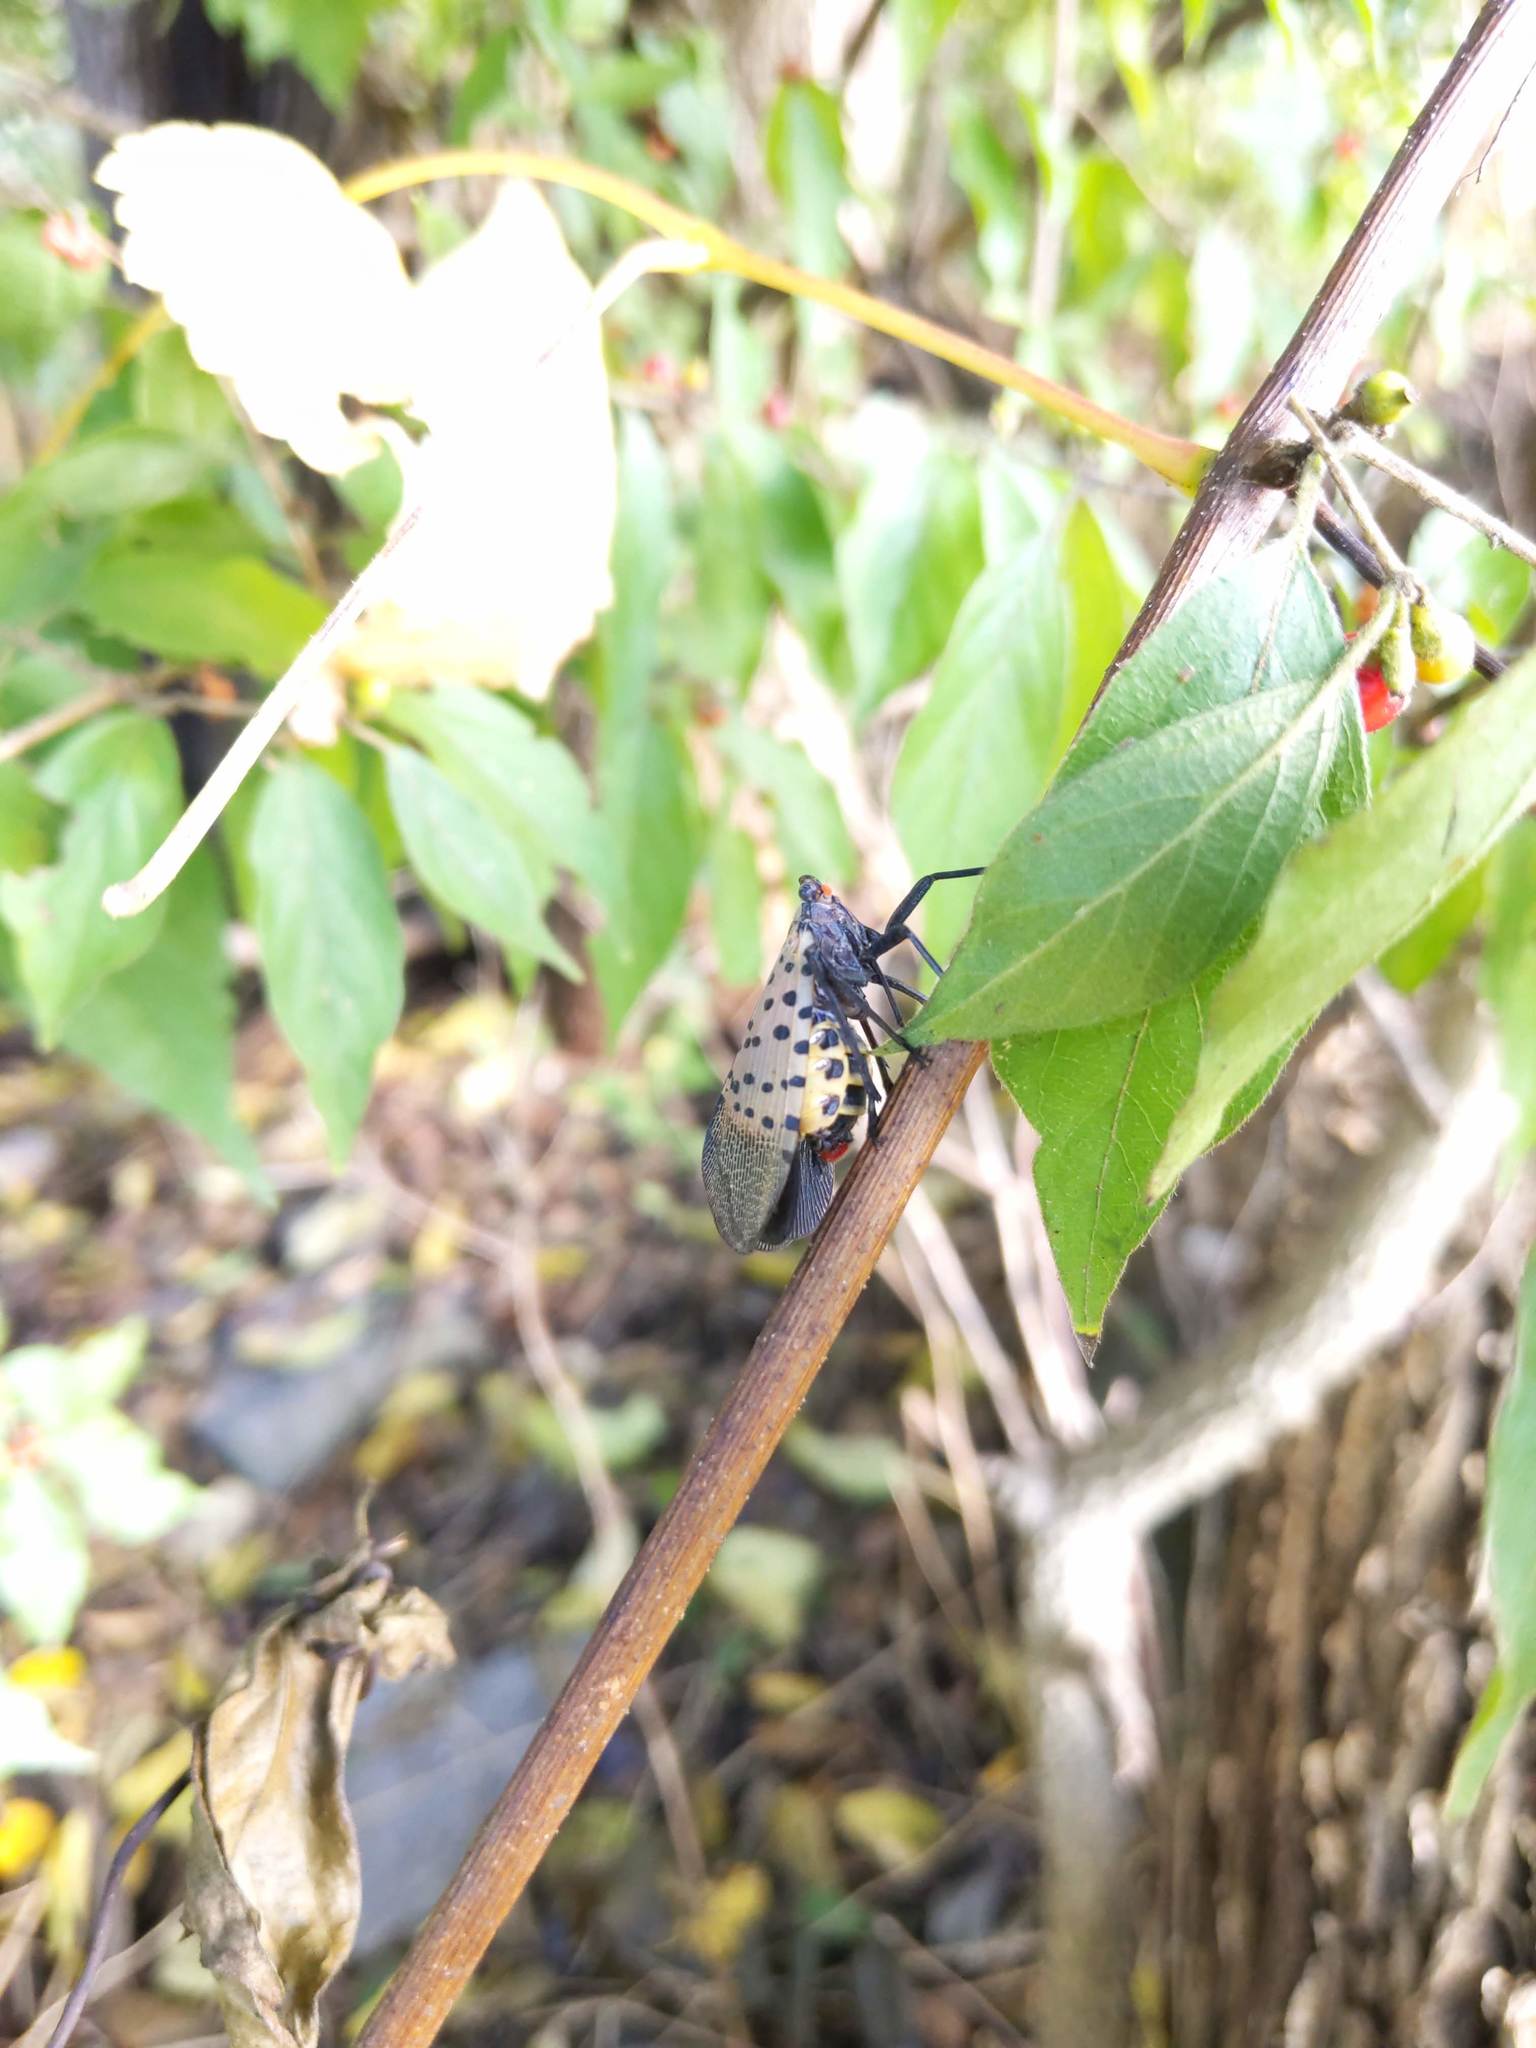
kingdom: Animalia
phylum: Arthropoda
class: Insecta
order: Hemiptera
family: Fulgoridae
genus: Lycorma
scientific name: Lycorma delicatula
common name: Spotted lanternfly
